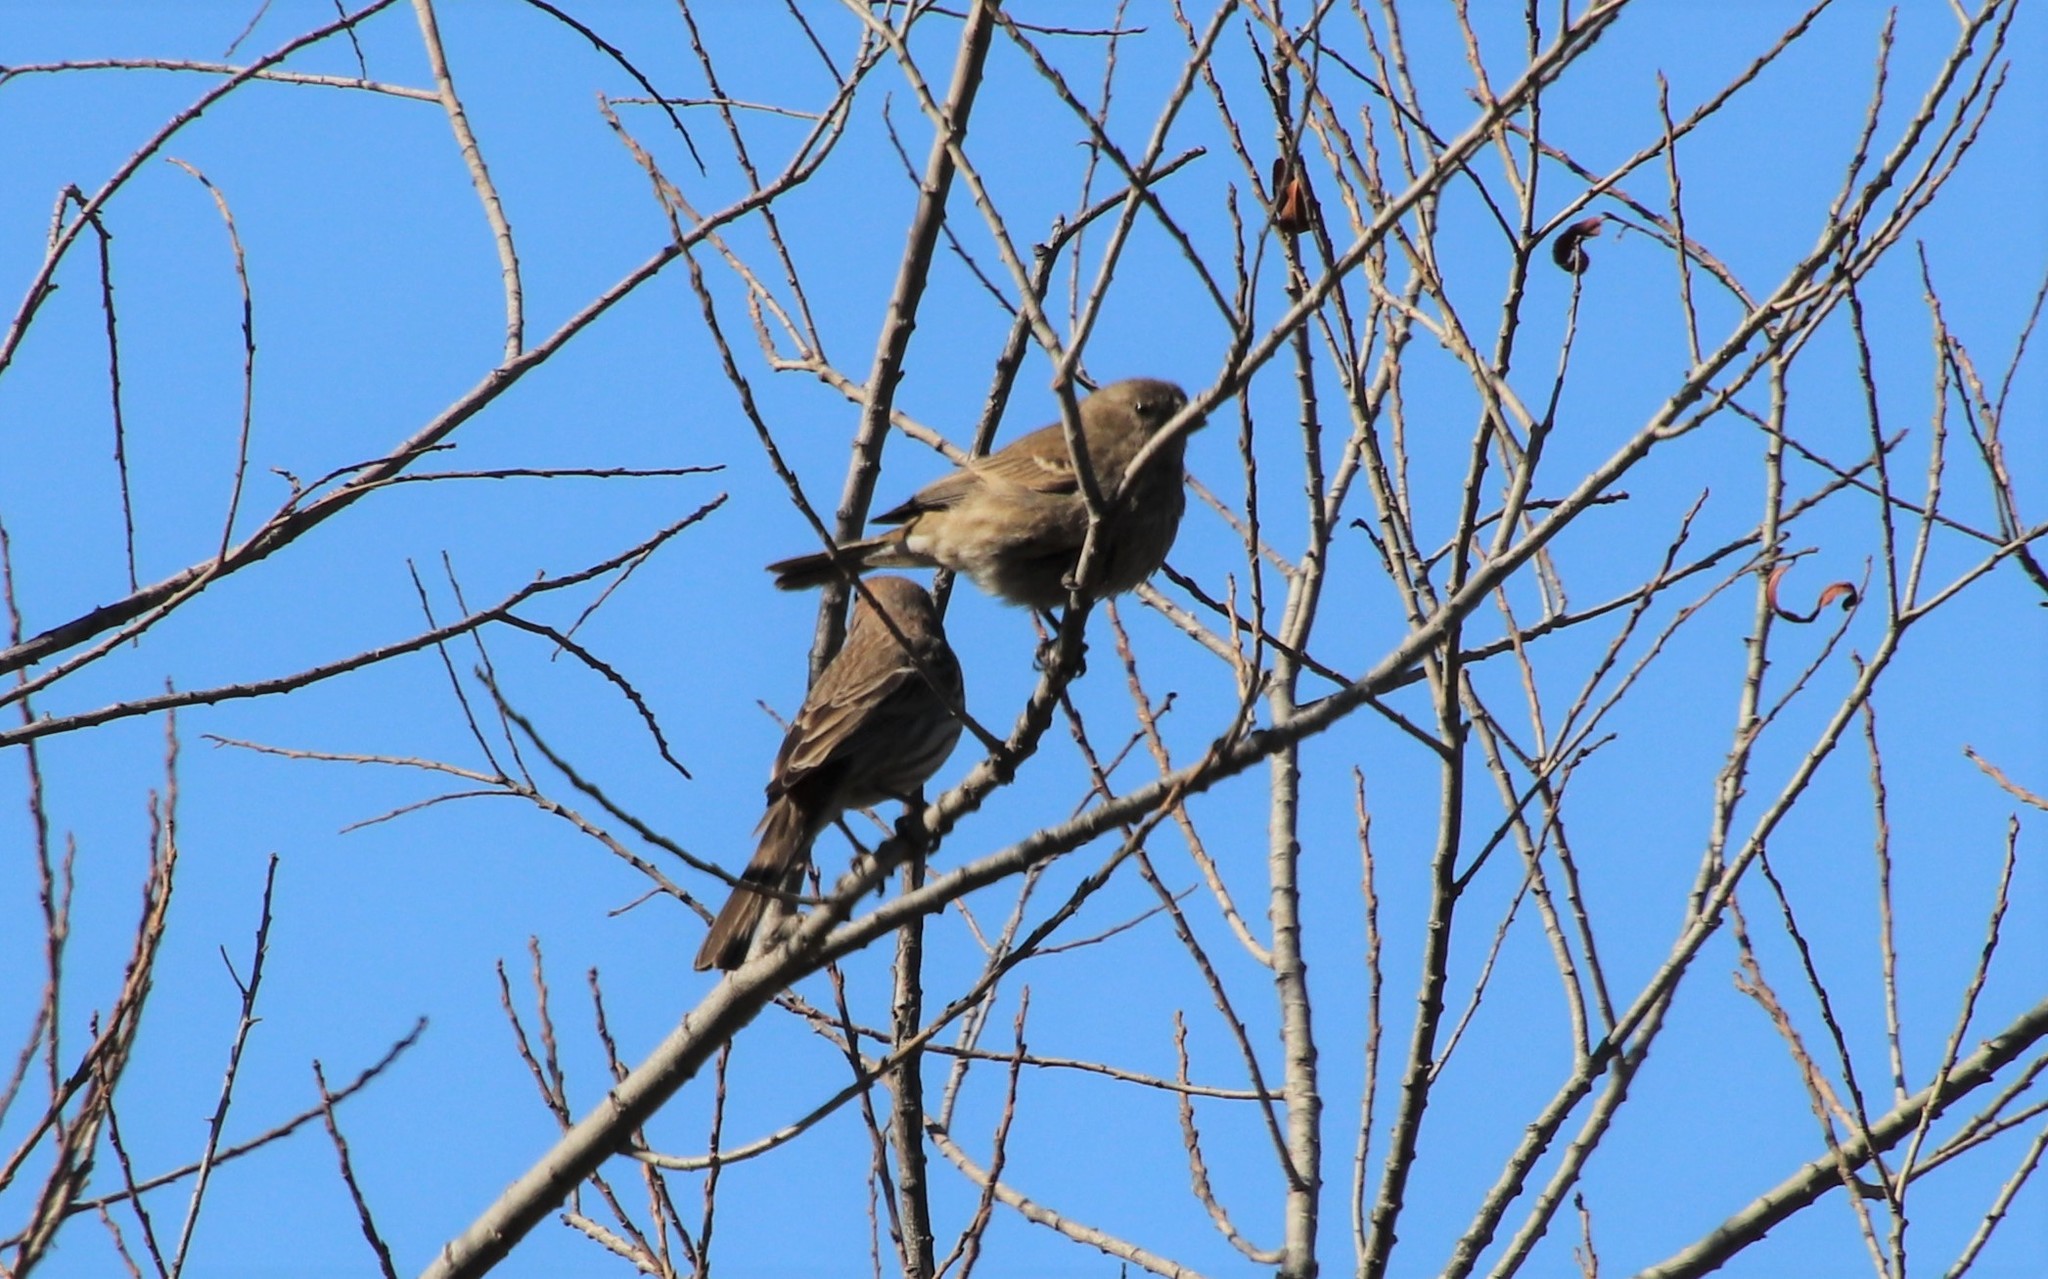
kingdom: Animalia
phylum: Chordata
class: Aves
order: Passeriformes
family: Fringillidae
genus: Haemorhous
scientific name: Haemorhous mexicanus
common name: House finch
